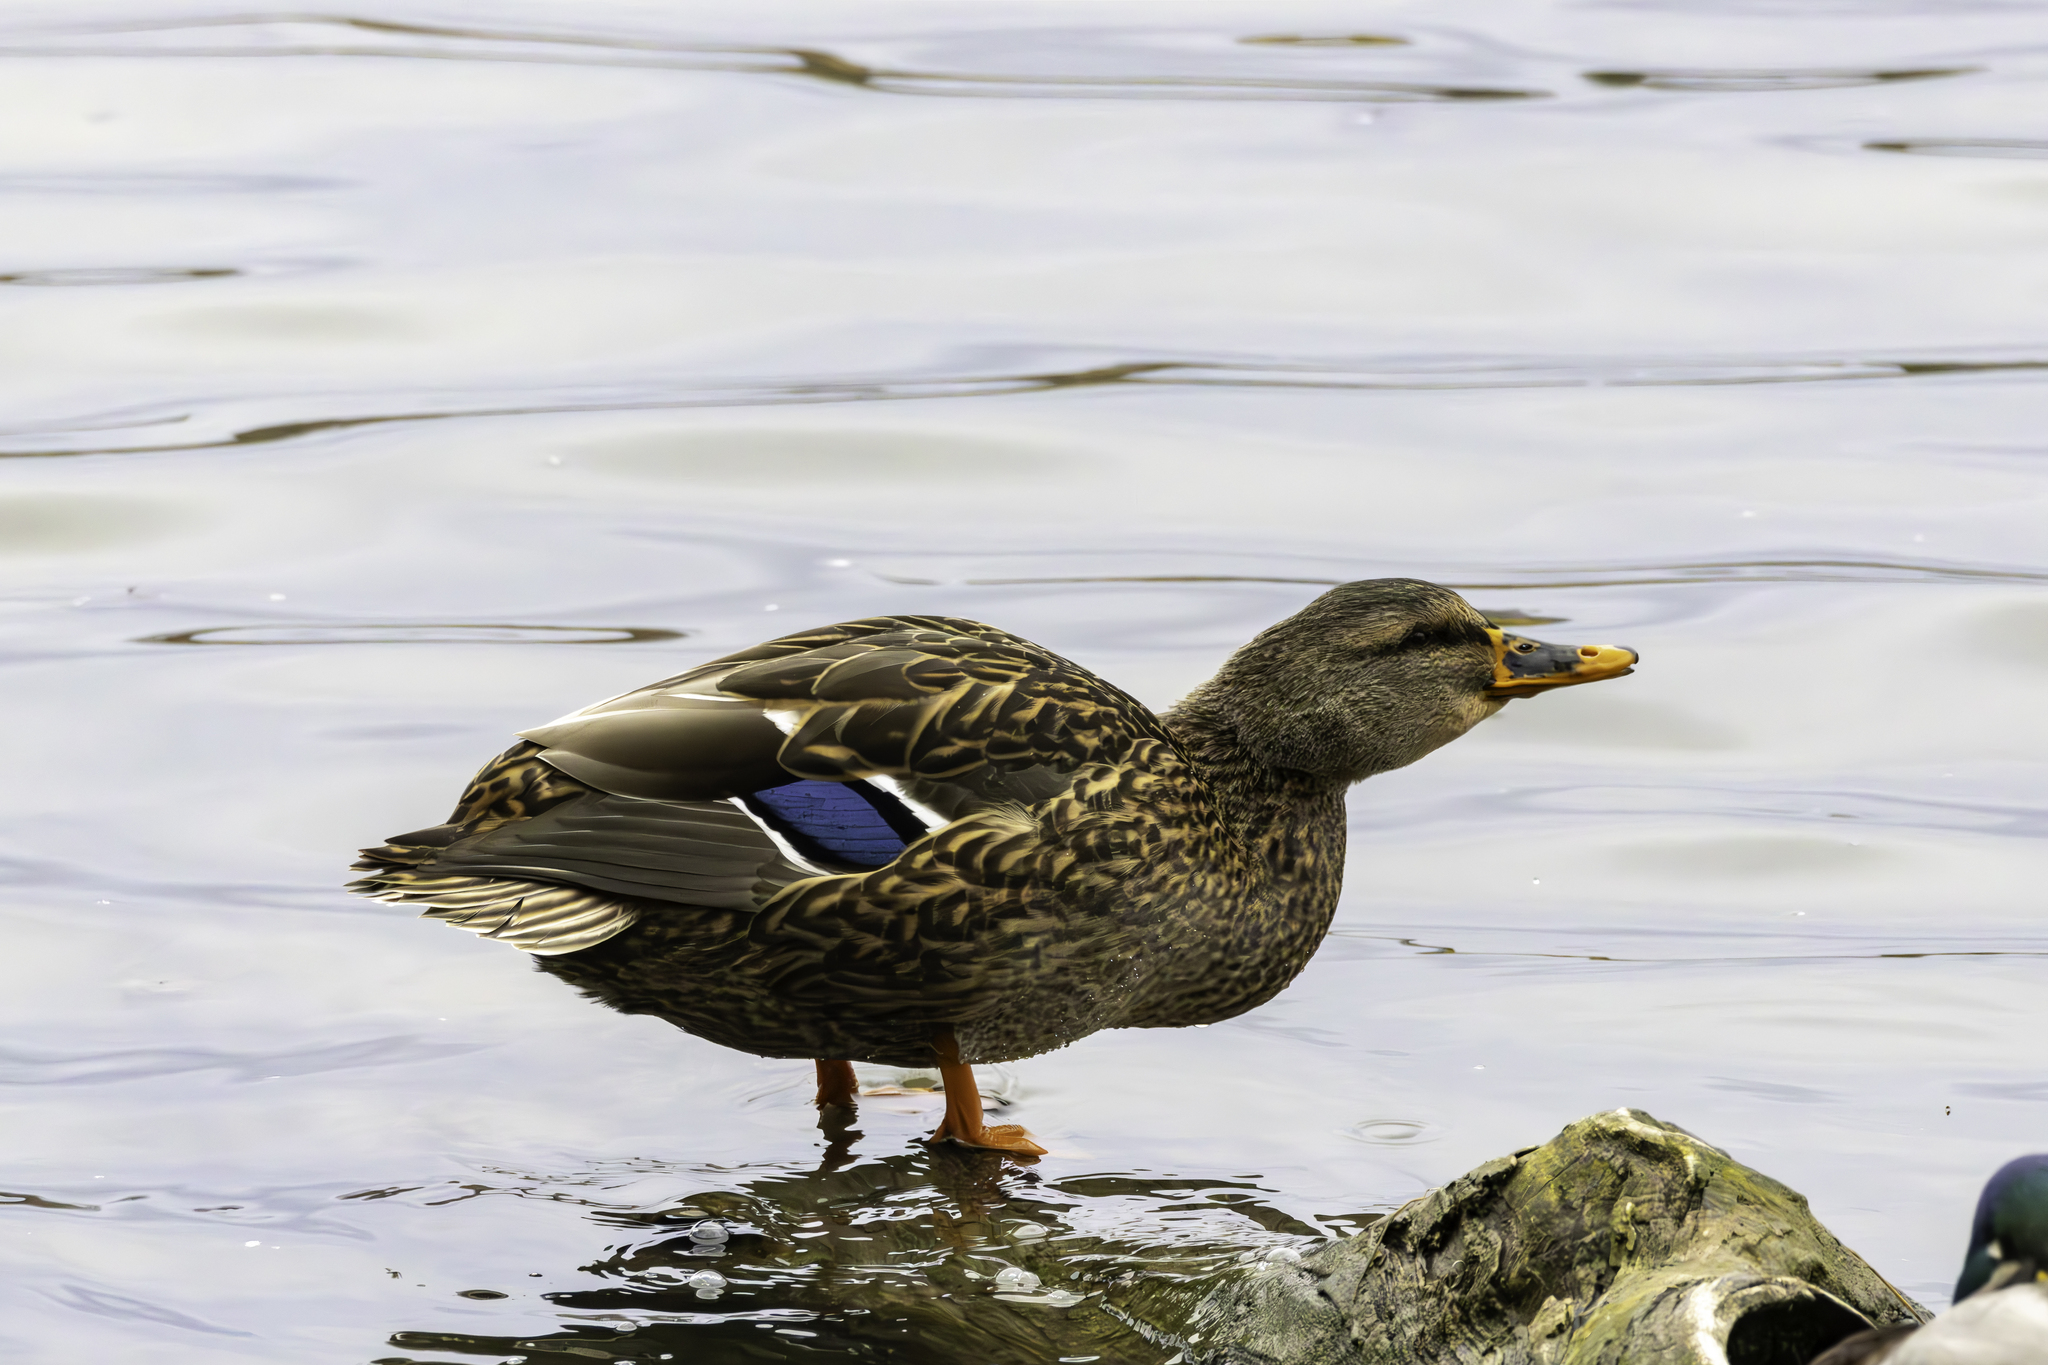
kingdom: Animalia
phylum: Chordata
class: Aves
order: Anseriformes
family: Anatidae
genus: Anas
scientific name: Anas platyrhynchos
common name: Mallard
